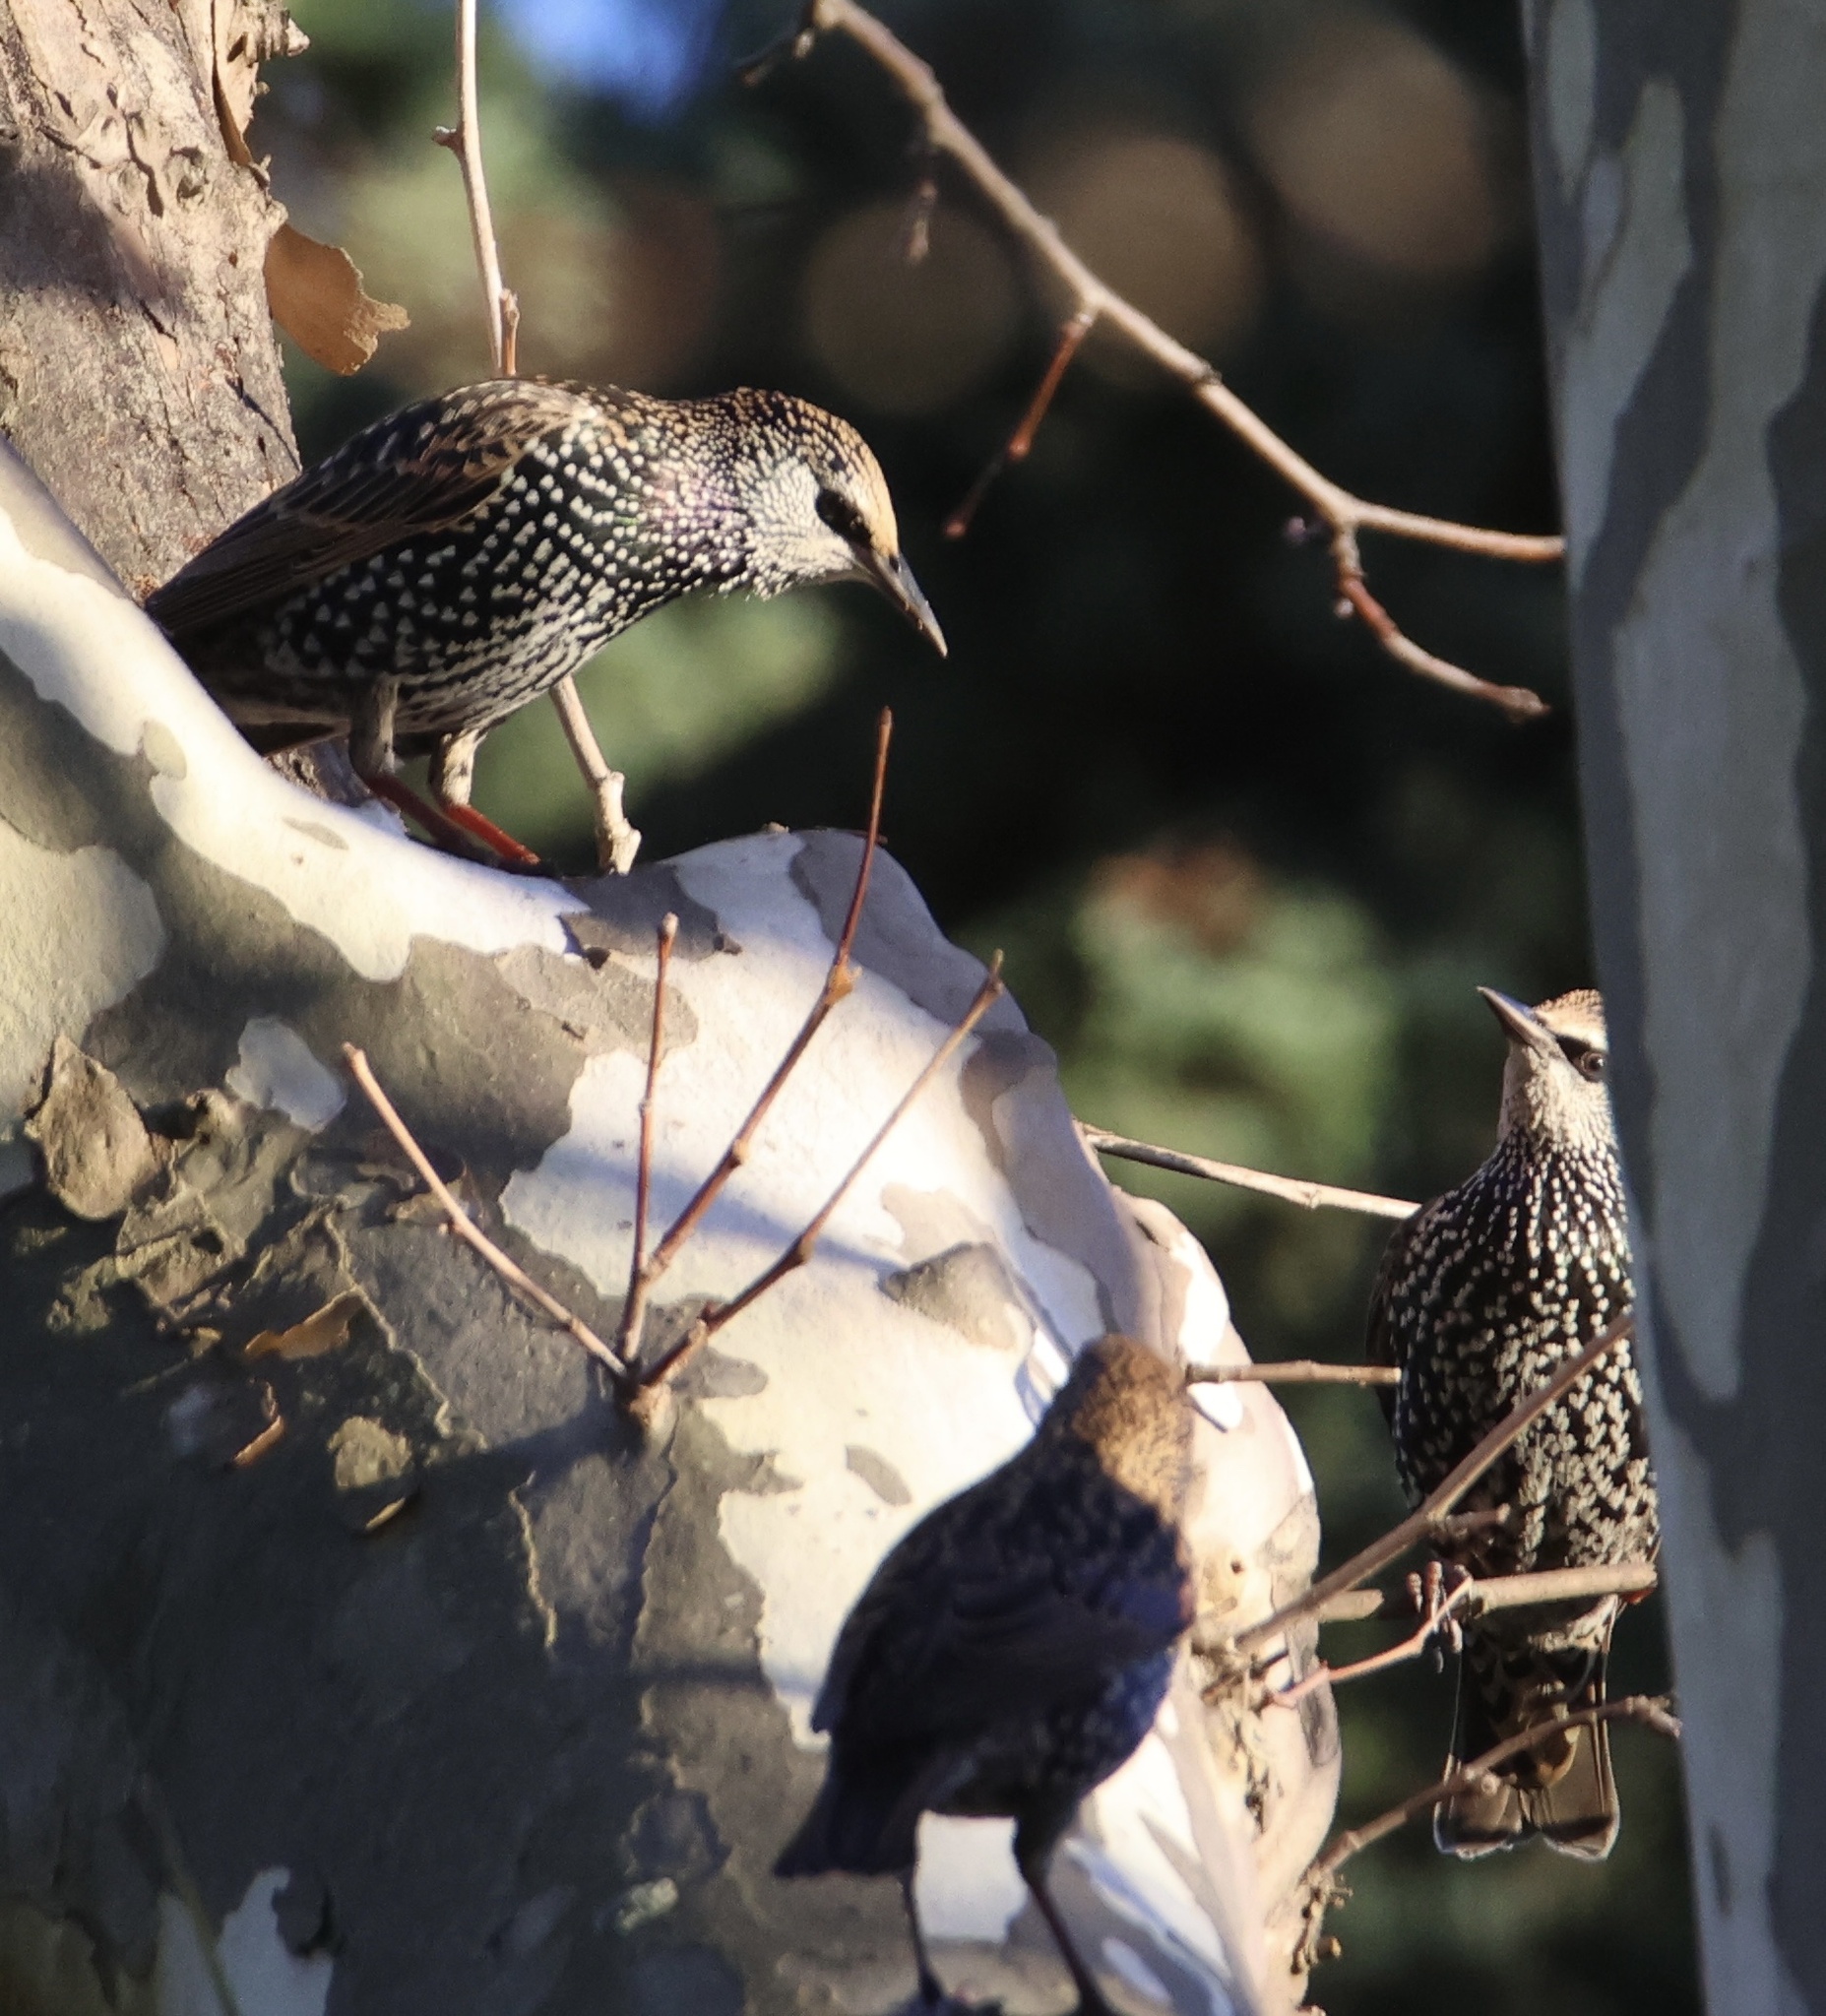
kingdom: Animalia
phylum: Chordata
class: Aves
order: Passeriformes
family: Sturnidae
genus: Sturnus
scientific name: Sturnus vulgaris
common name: Common starling
